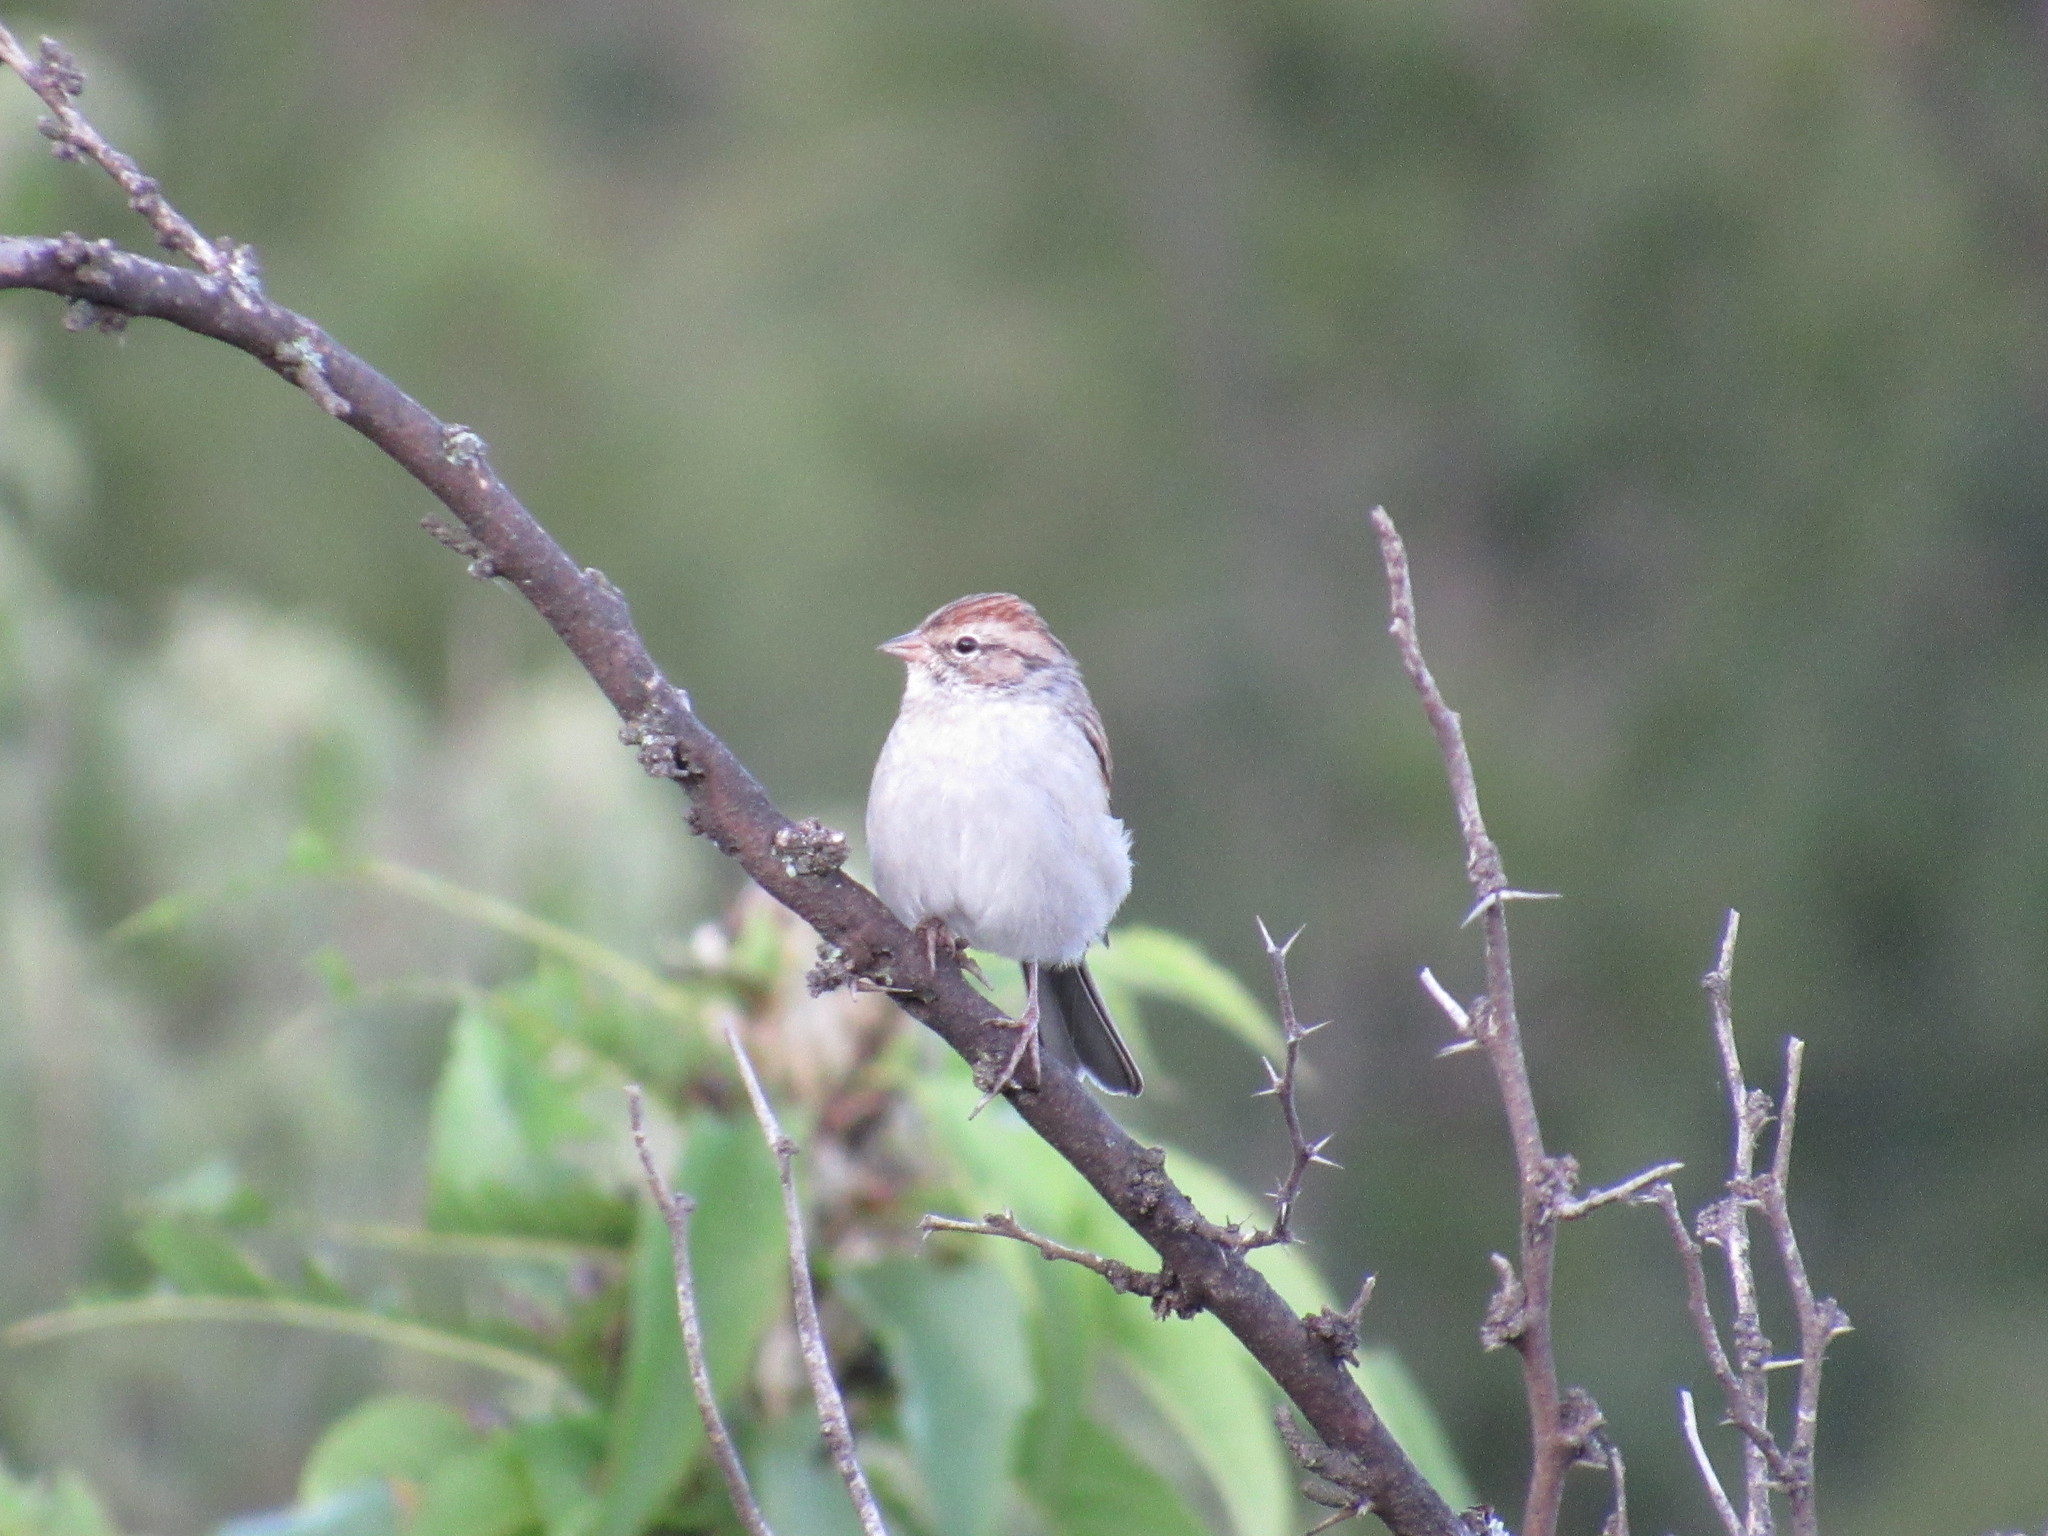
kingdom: Animalia
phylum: Chordata
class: Aves
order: Passeriformes
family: Passerellidae
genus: Spizella
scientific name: Spizella passerina
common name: Chipping sparrow
